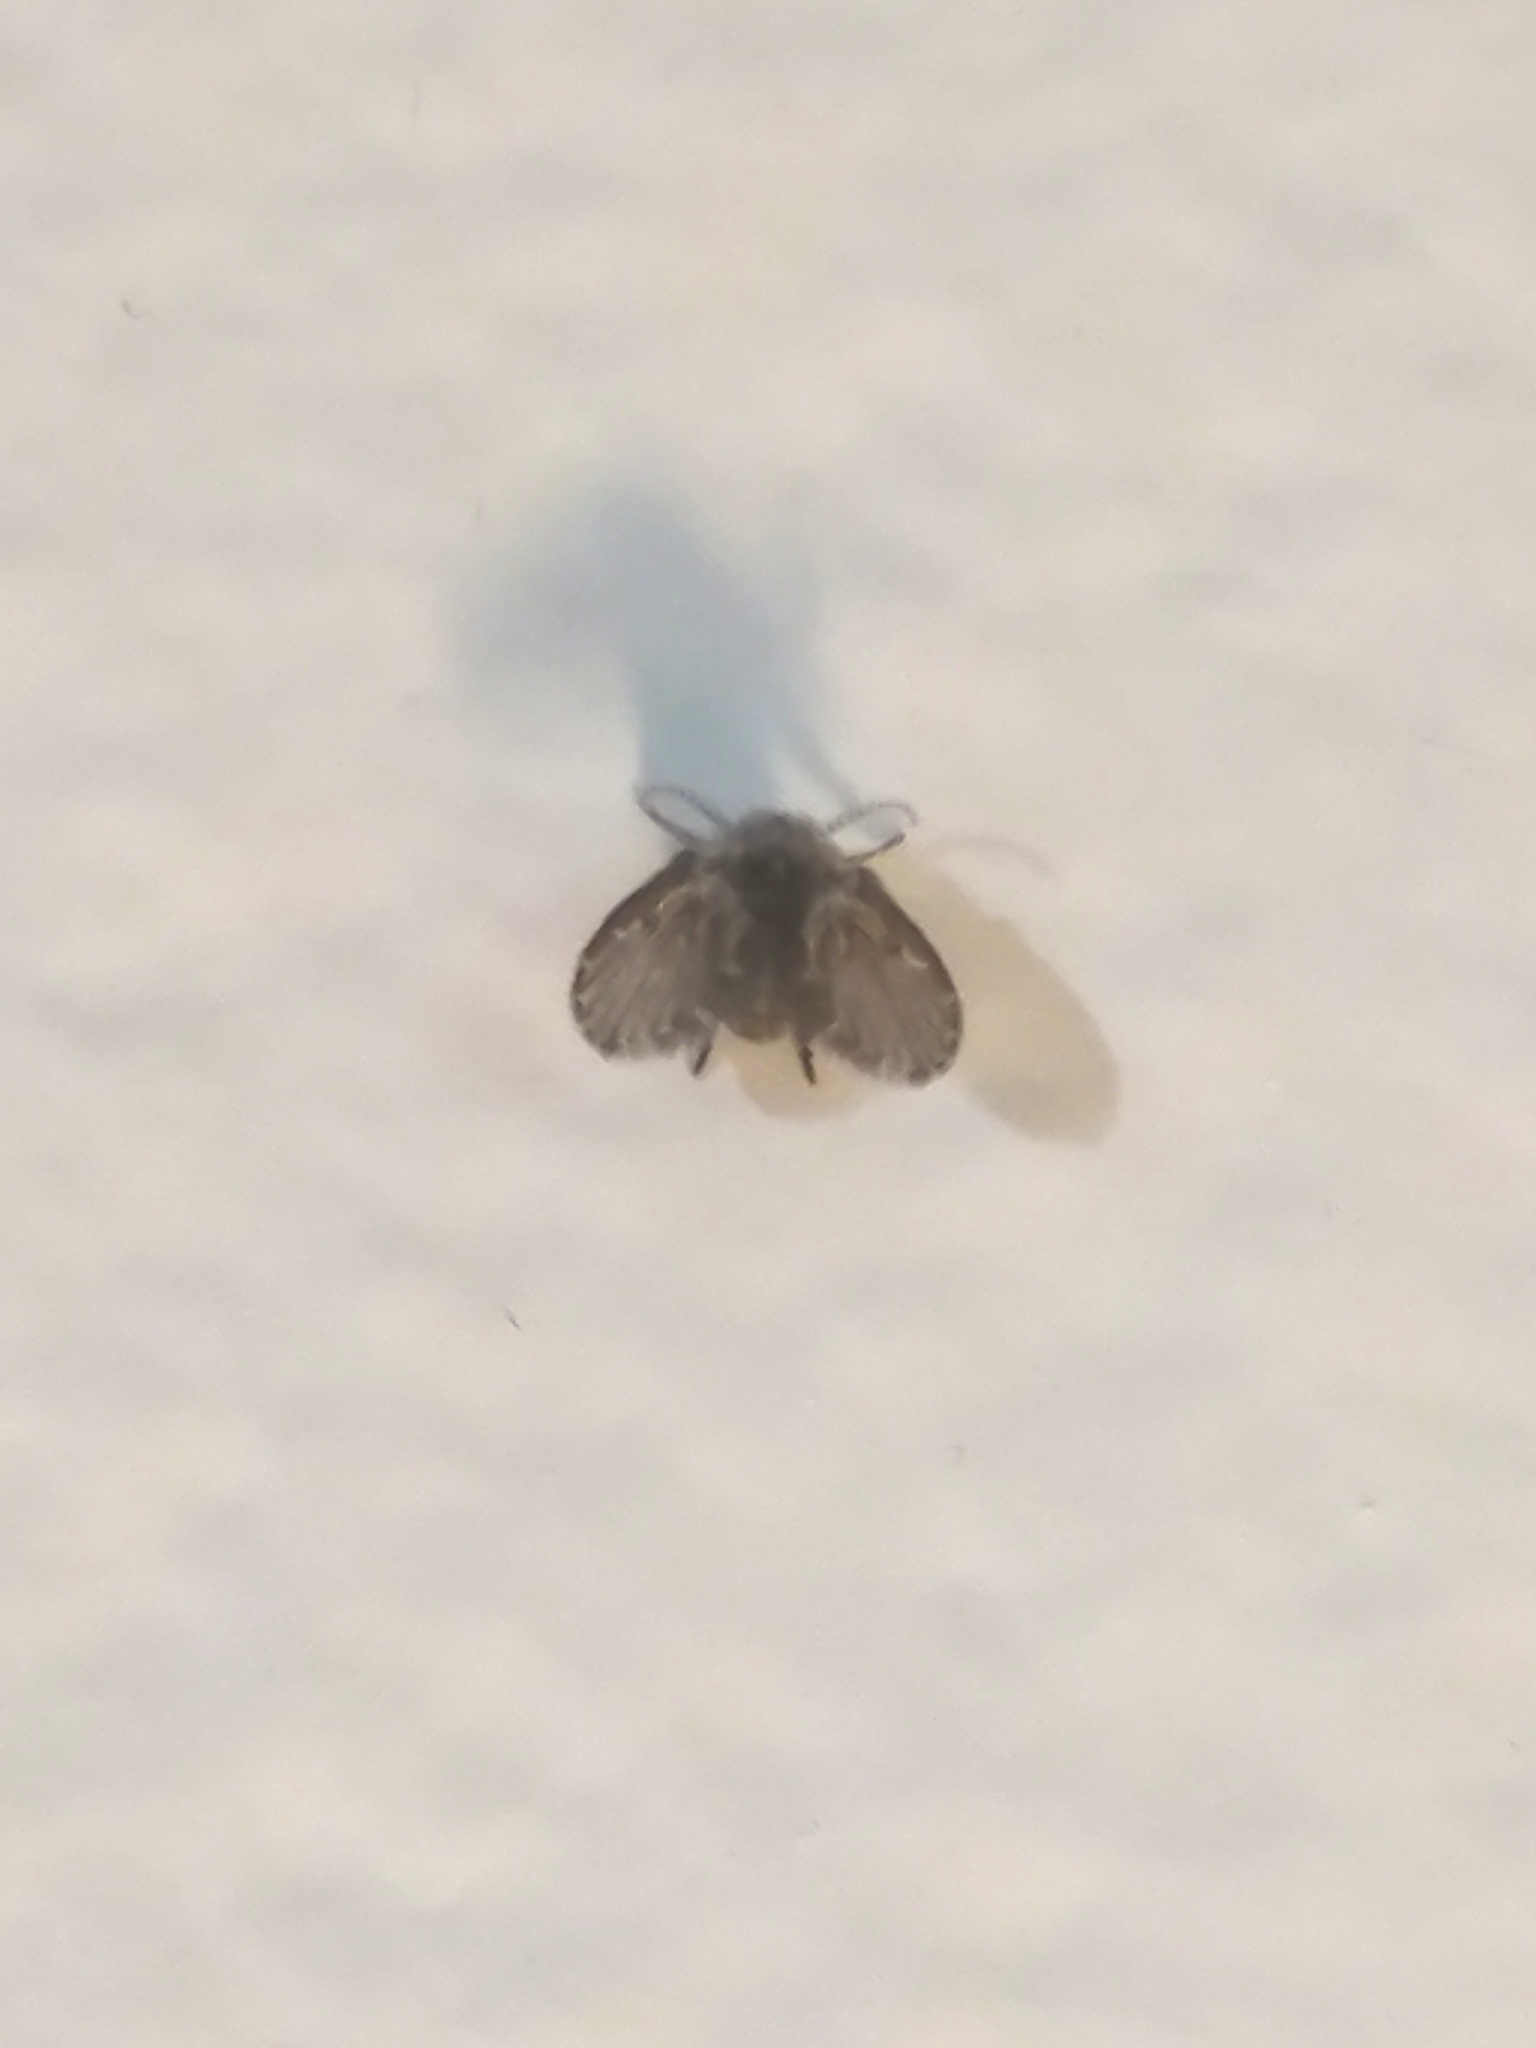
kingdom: Animalia
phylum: Arthropoda
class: Insecta
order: Diptera
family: Psychodidae
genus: Clogmia
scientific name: Clogmia albipunctatus
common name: White-spotted moth fly
